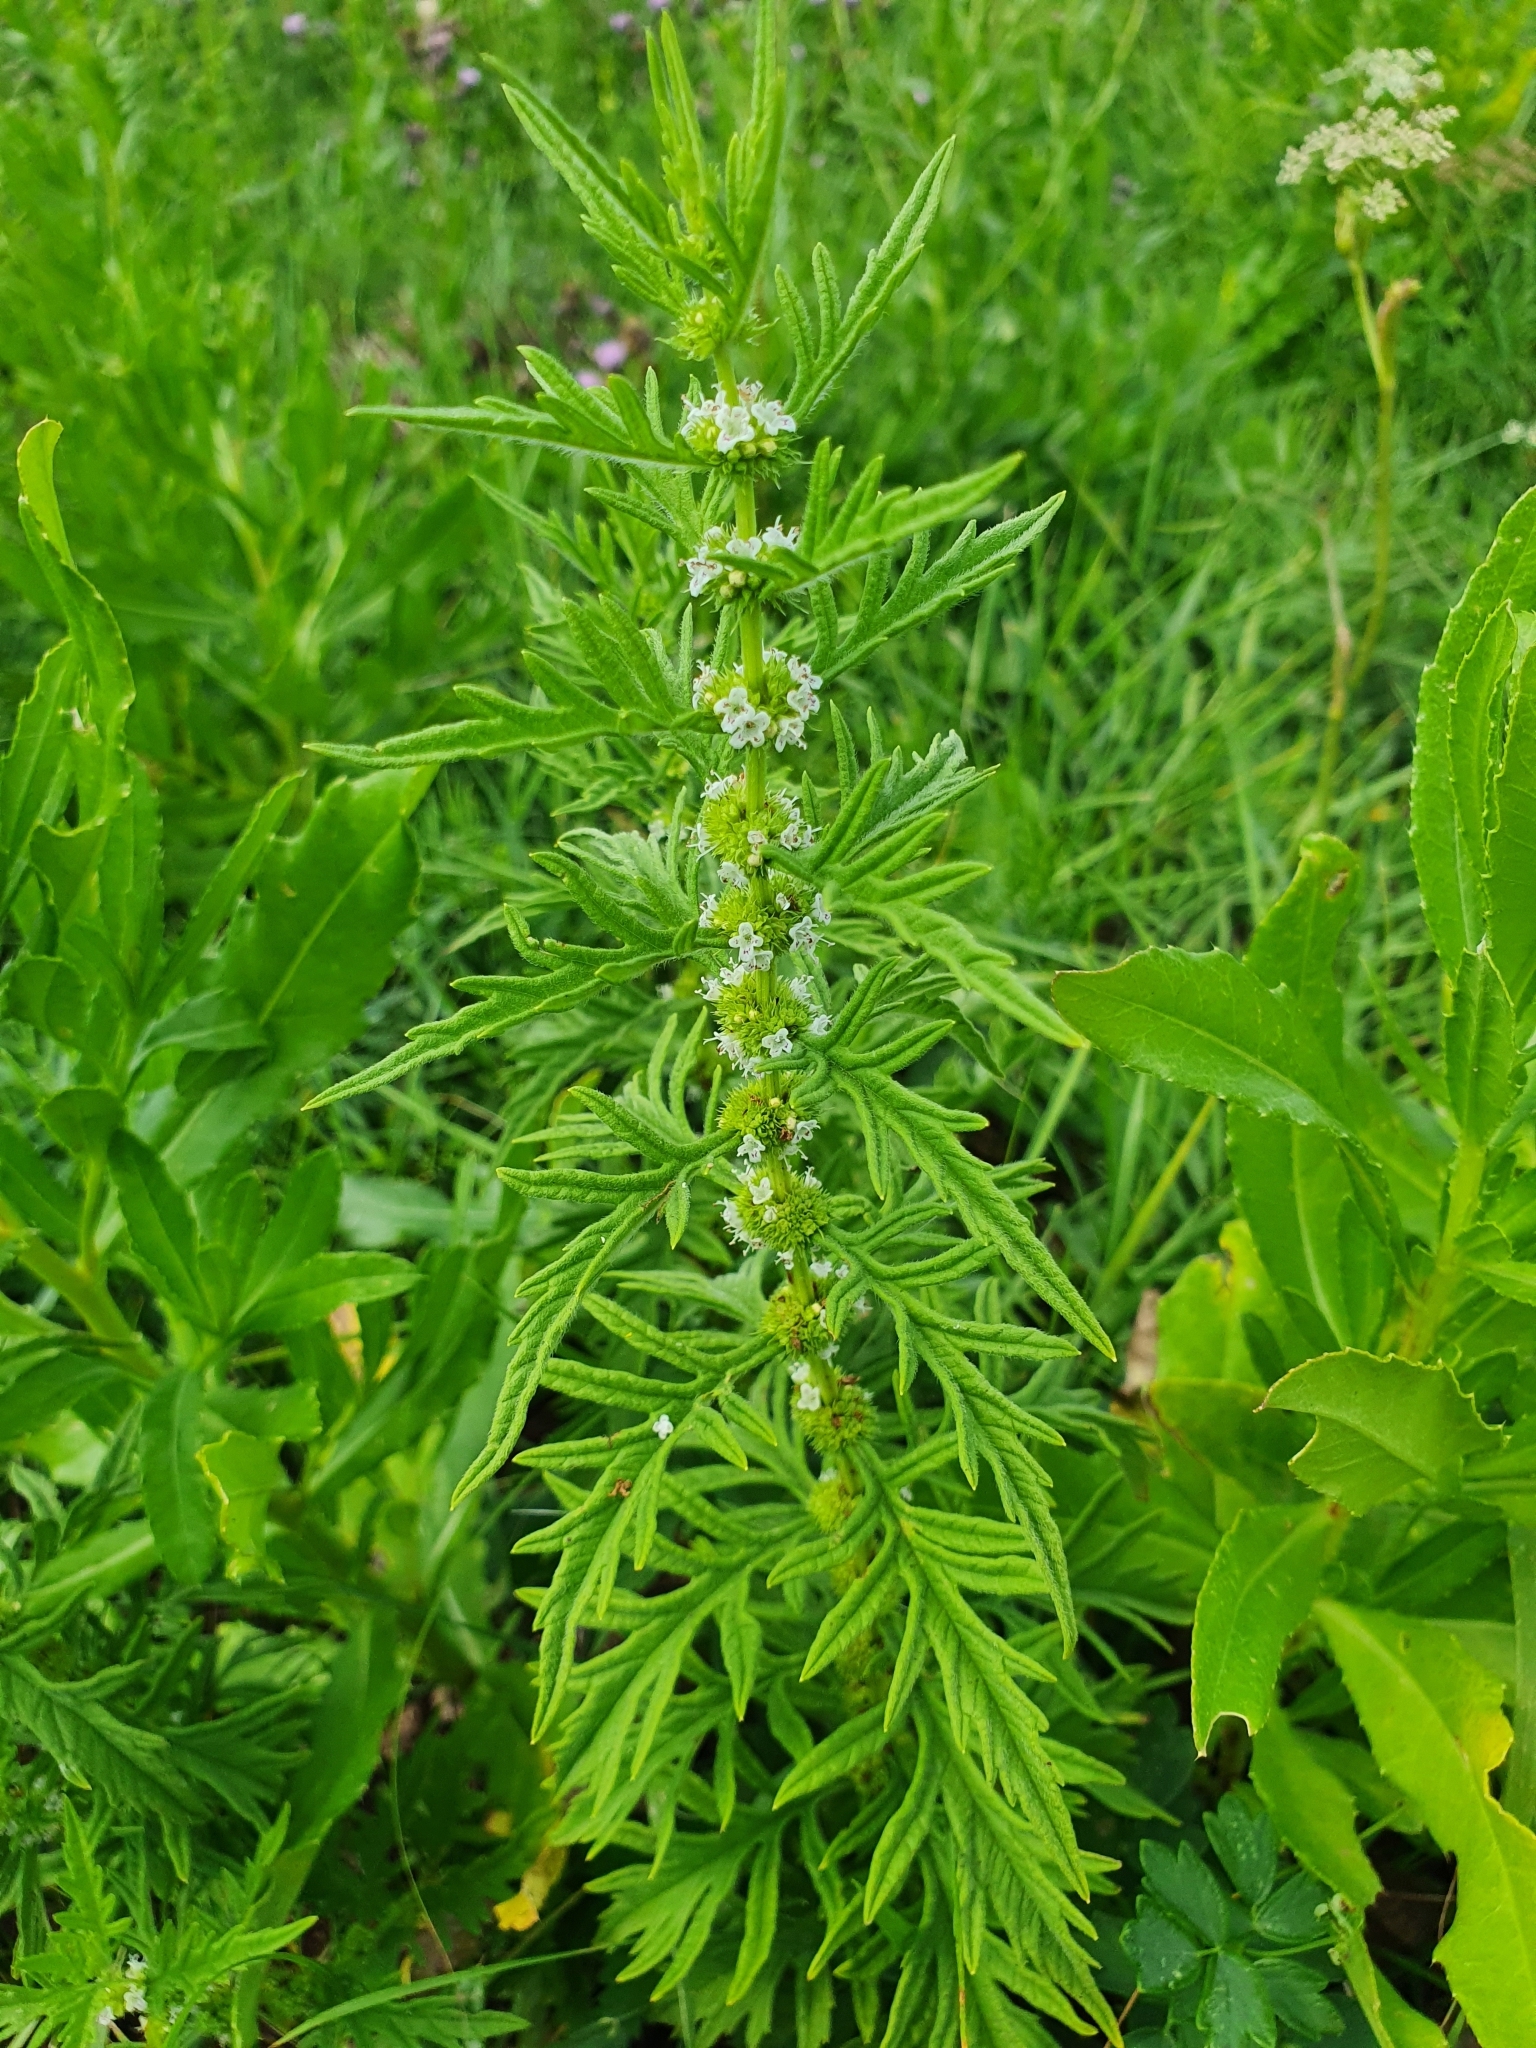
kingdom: Plantae
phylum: Tracheophyta
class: Magnoliopsida
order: Lamiales
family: Lamiaceae
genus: Lycopus
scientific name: Lycopus exaltatus
